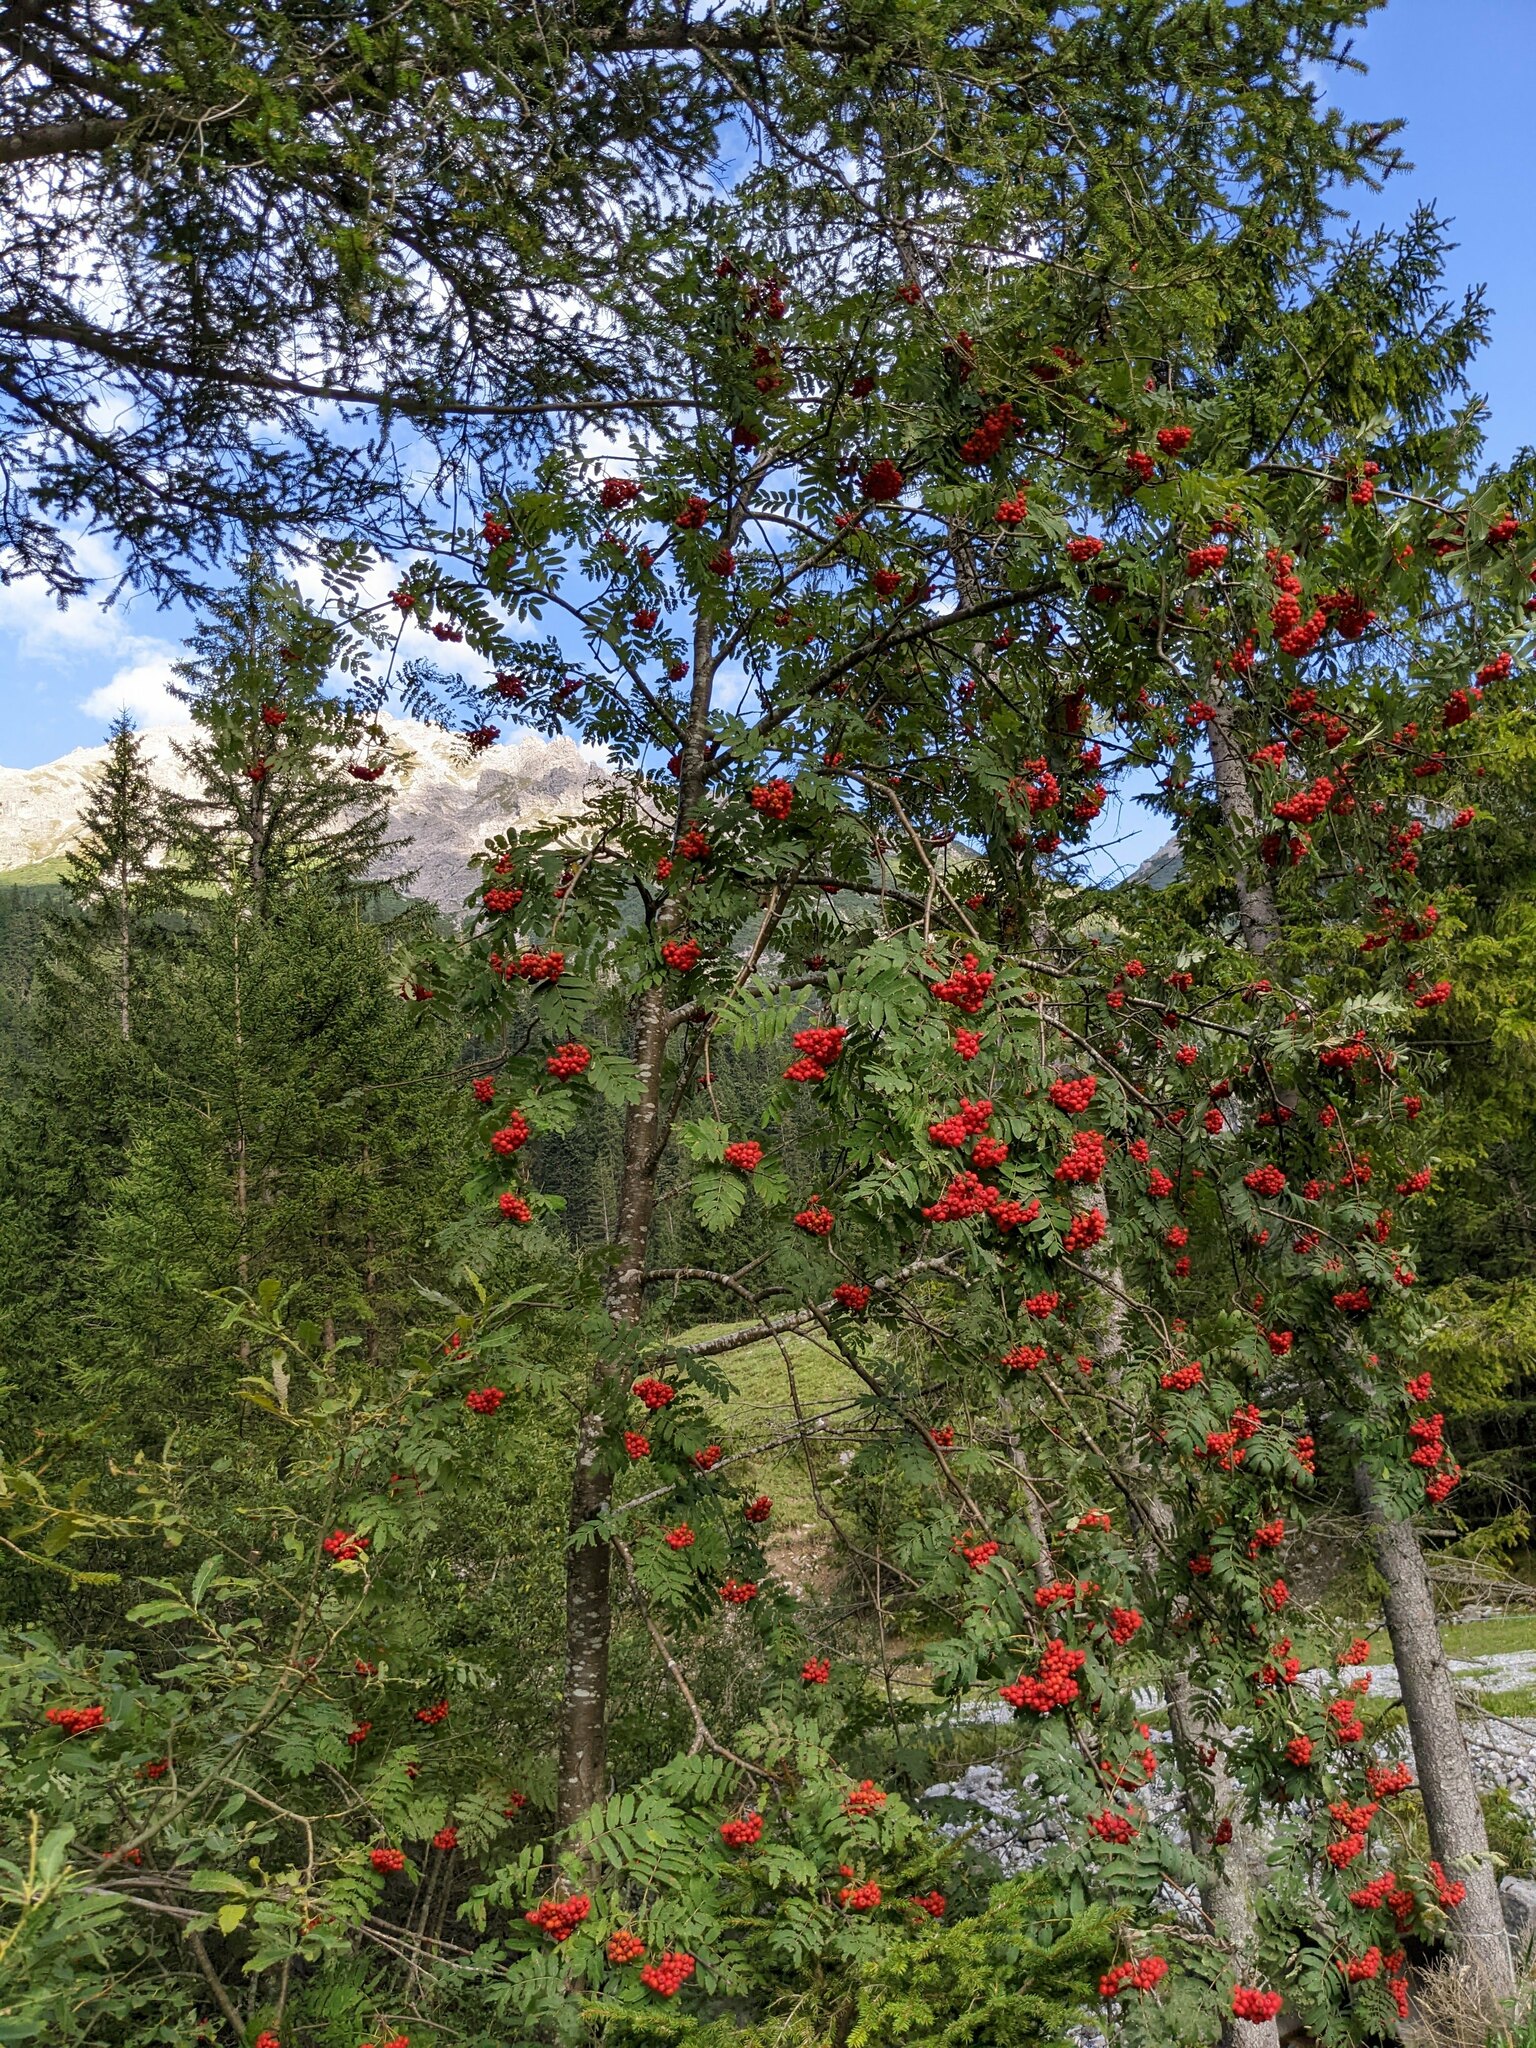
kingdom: Plantae
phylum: Tracheophyta
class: Magnoliopsida
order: Rosales
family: Rosaceae
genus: Sorbus
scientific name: Sorbus aucuparia
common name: Rowan
